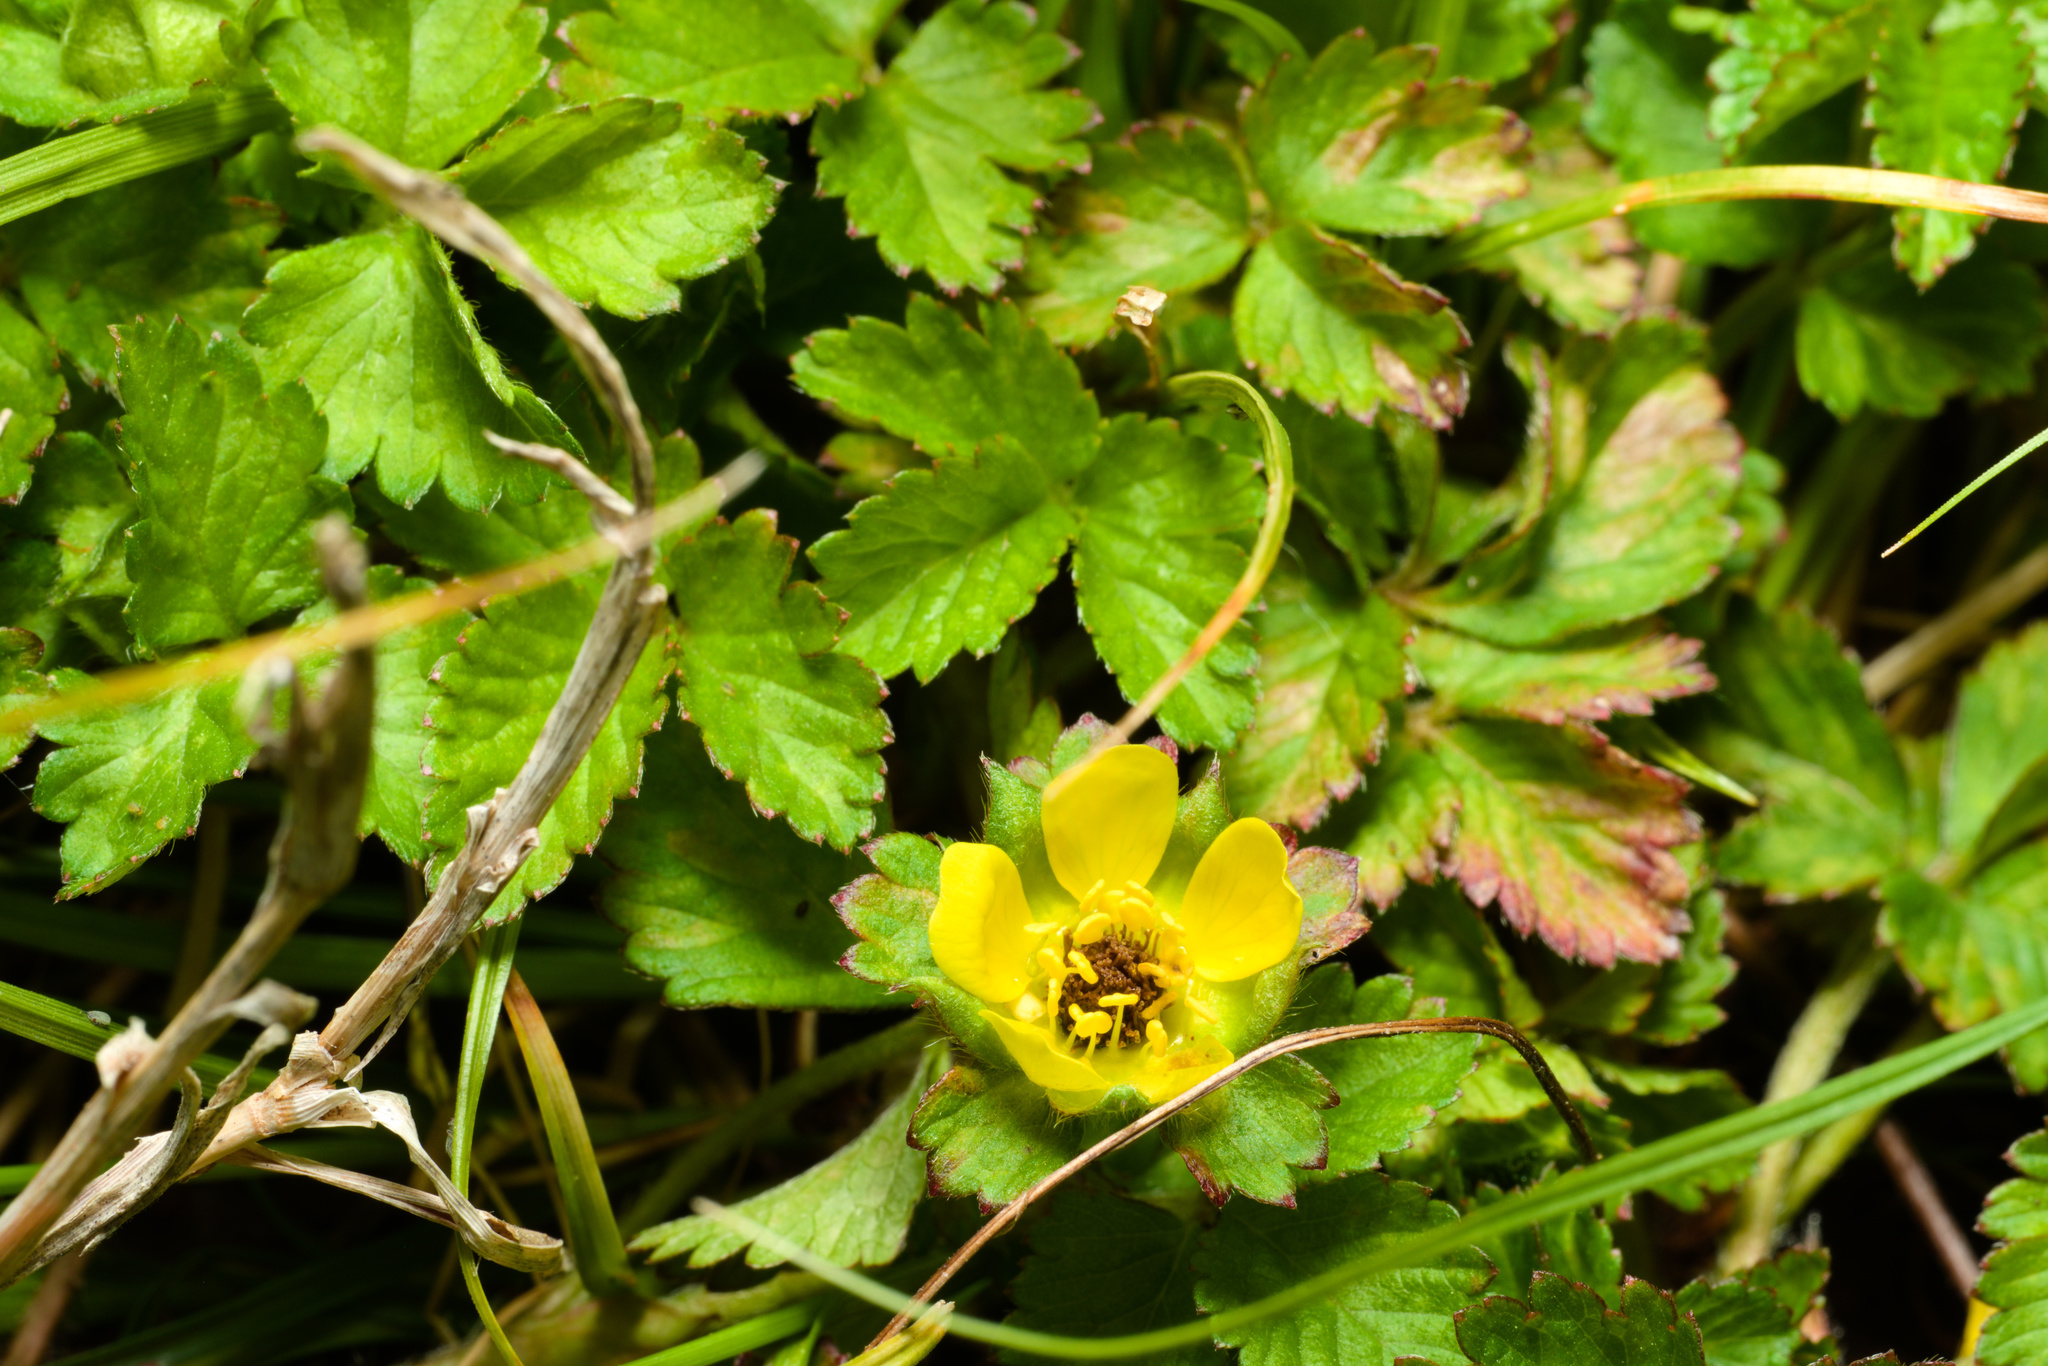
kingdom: Plantae
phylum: Tracheophyta
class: Magnoliopsida
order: Rosales
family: Rosaceae
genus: Potentilla
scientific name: Potentilla indica
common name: Yellow-flowered strawberry
